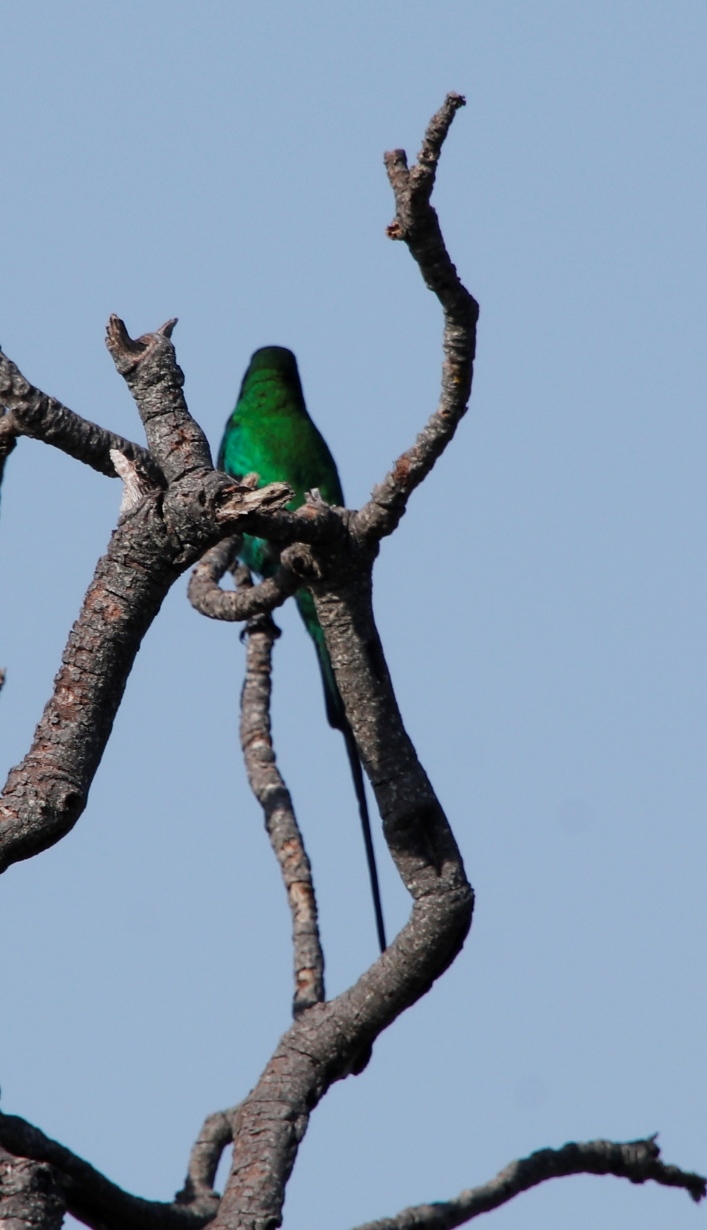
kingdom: Animalia
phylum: Chordata
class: Aves
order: Passeriformes
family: Nectariniidae
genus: Nectarinia
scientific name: Nectarinia famosa
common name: Malachite sunbird
